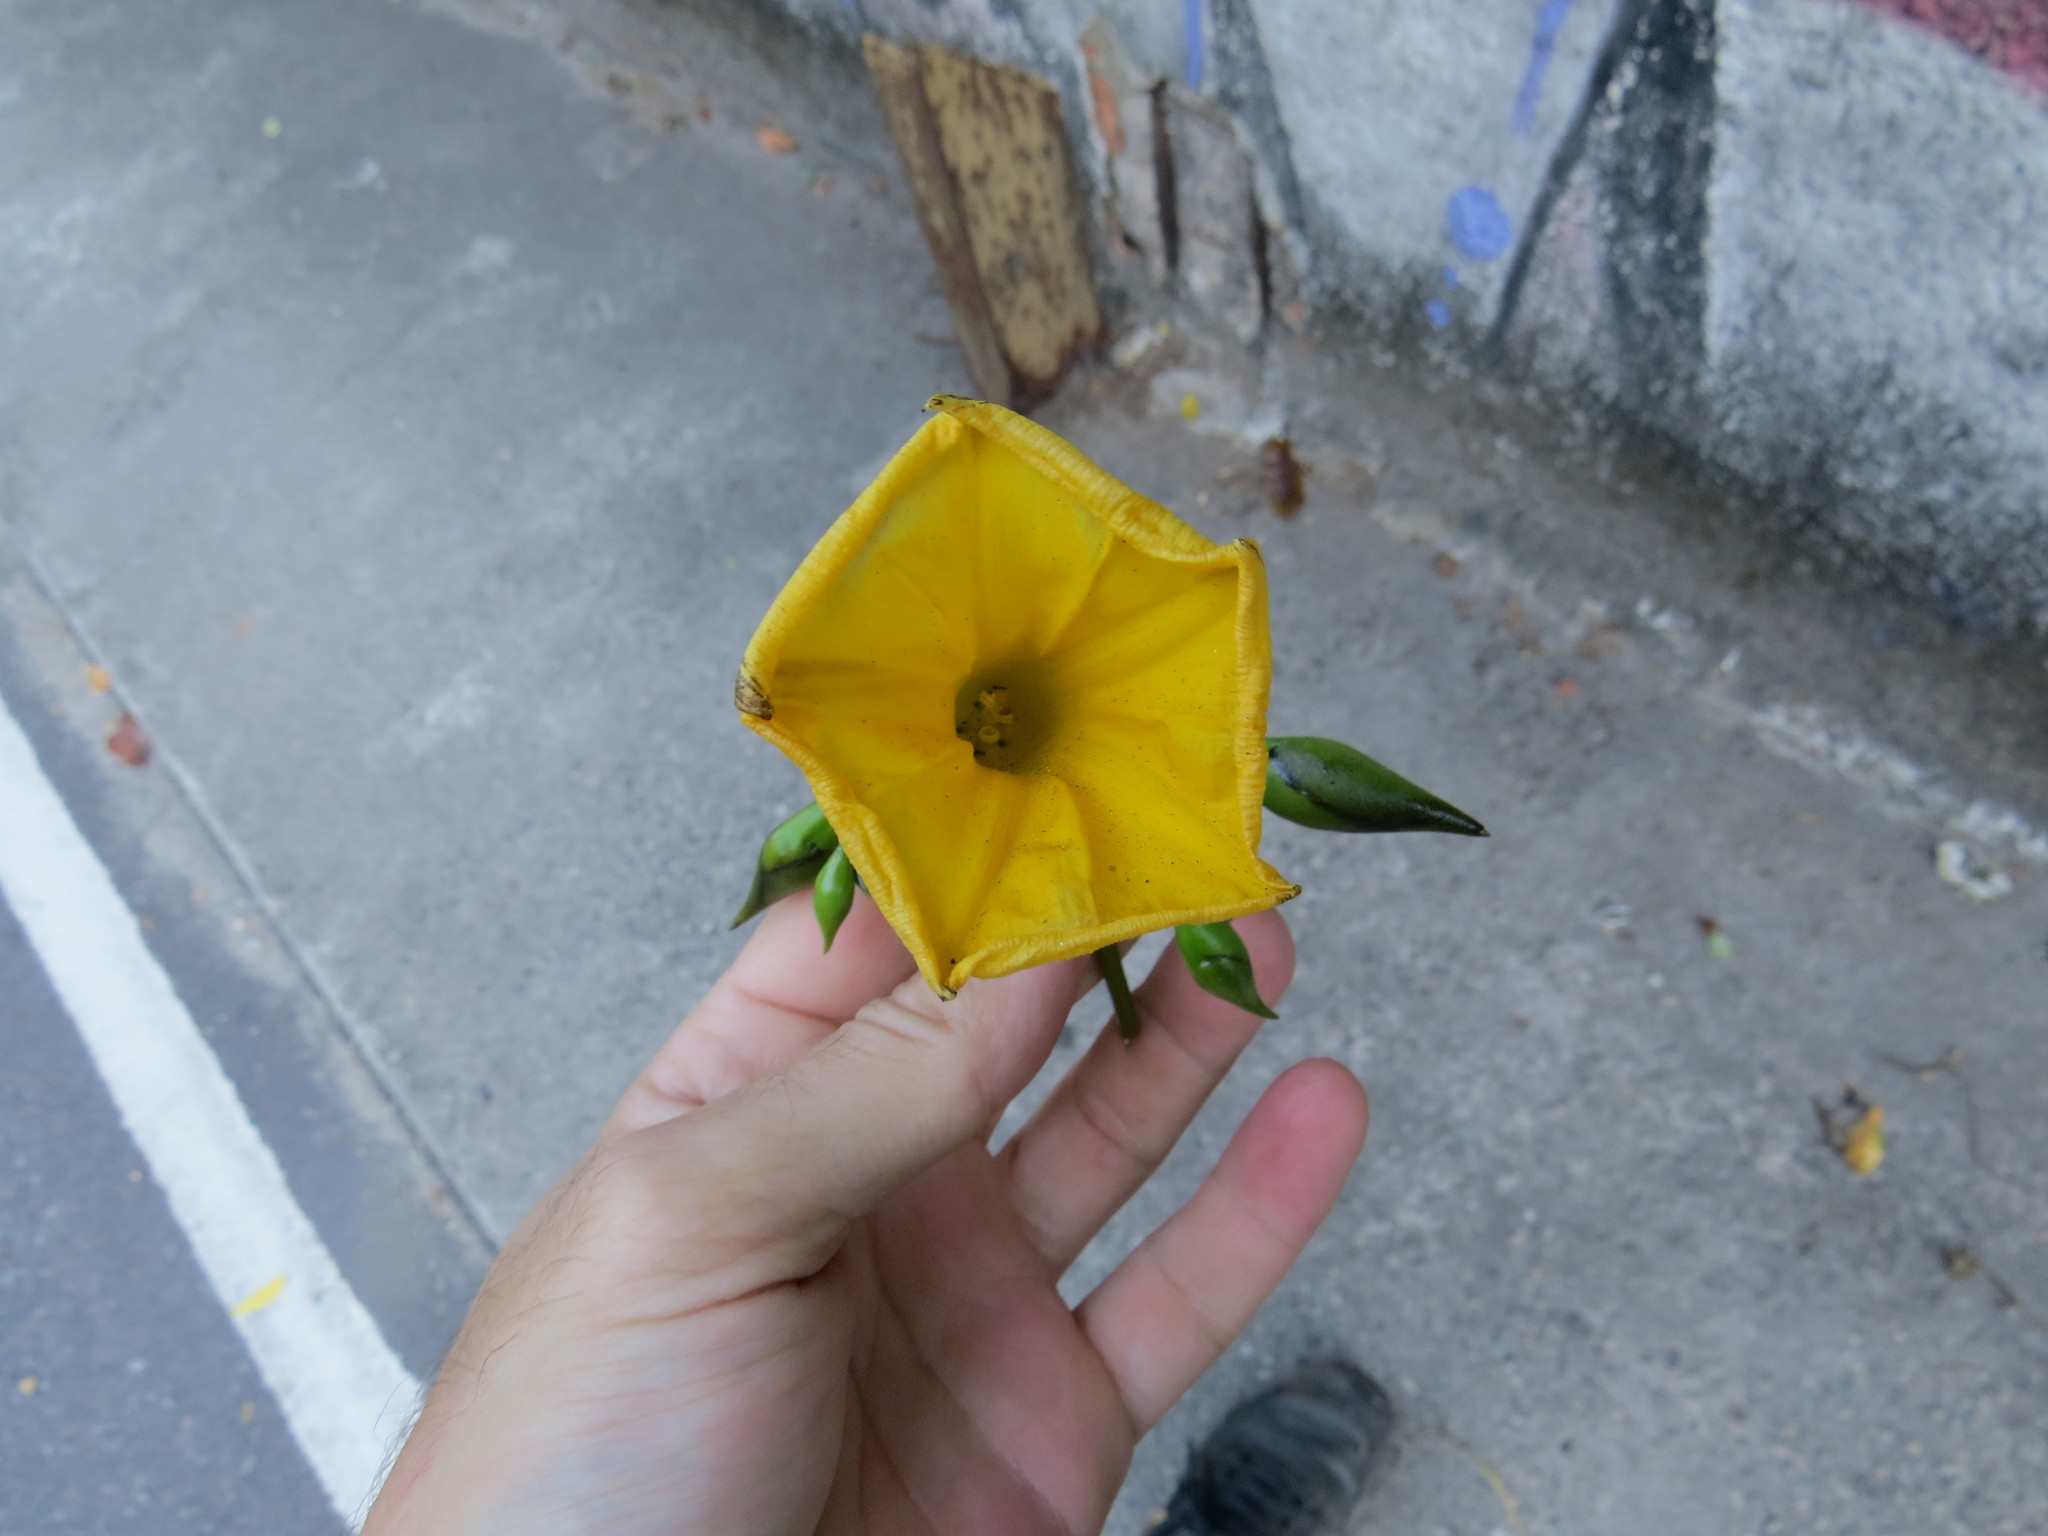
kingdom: Plantae
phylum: Tracheophyta
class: Magnoliopsida
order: Solanales
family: Convolvulaceae
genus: Distimake
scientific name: Distimake tuberosus
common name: Spanish arborvine
